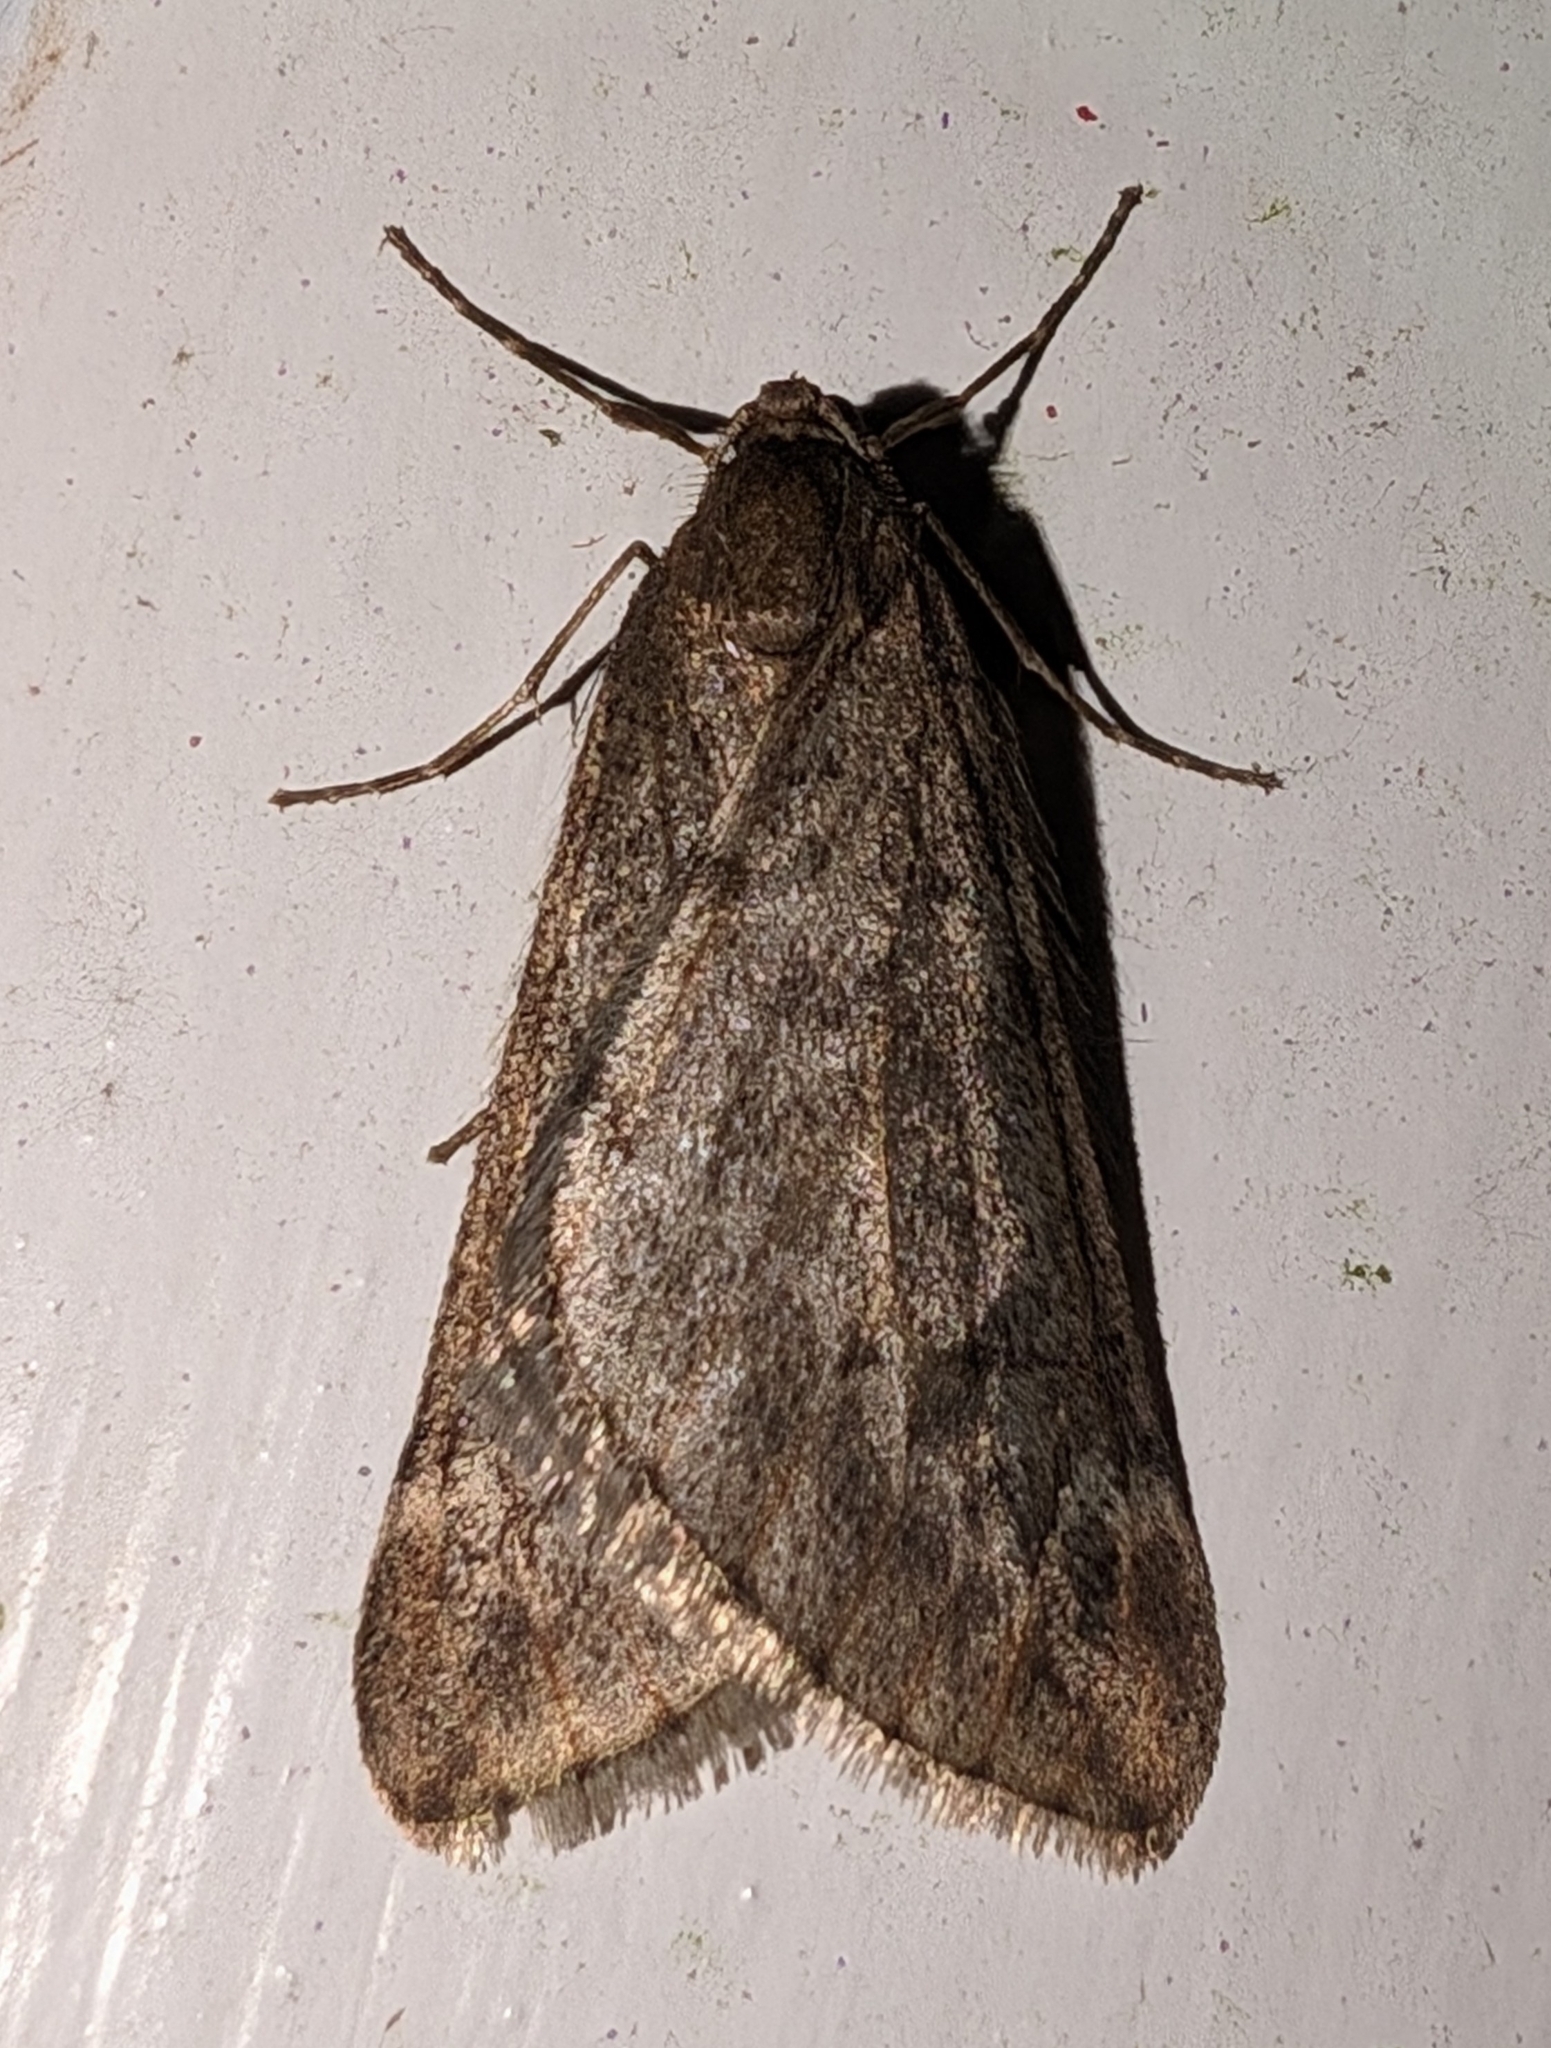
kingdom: Animalia
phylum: Arthropoda
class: Insecta
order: Lepidoptera
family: Geometridae
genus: Alsophila
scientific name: Alsophila aescularia
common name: March moth
